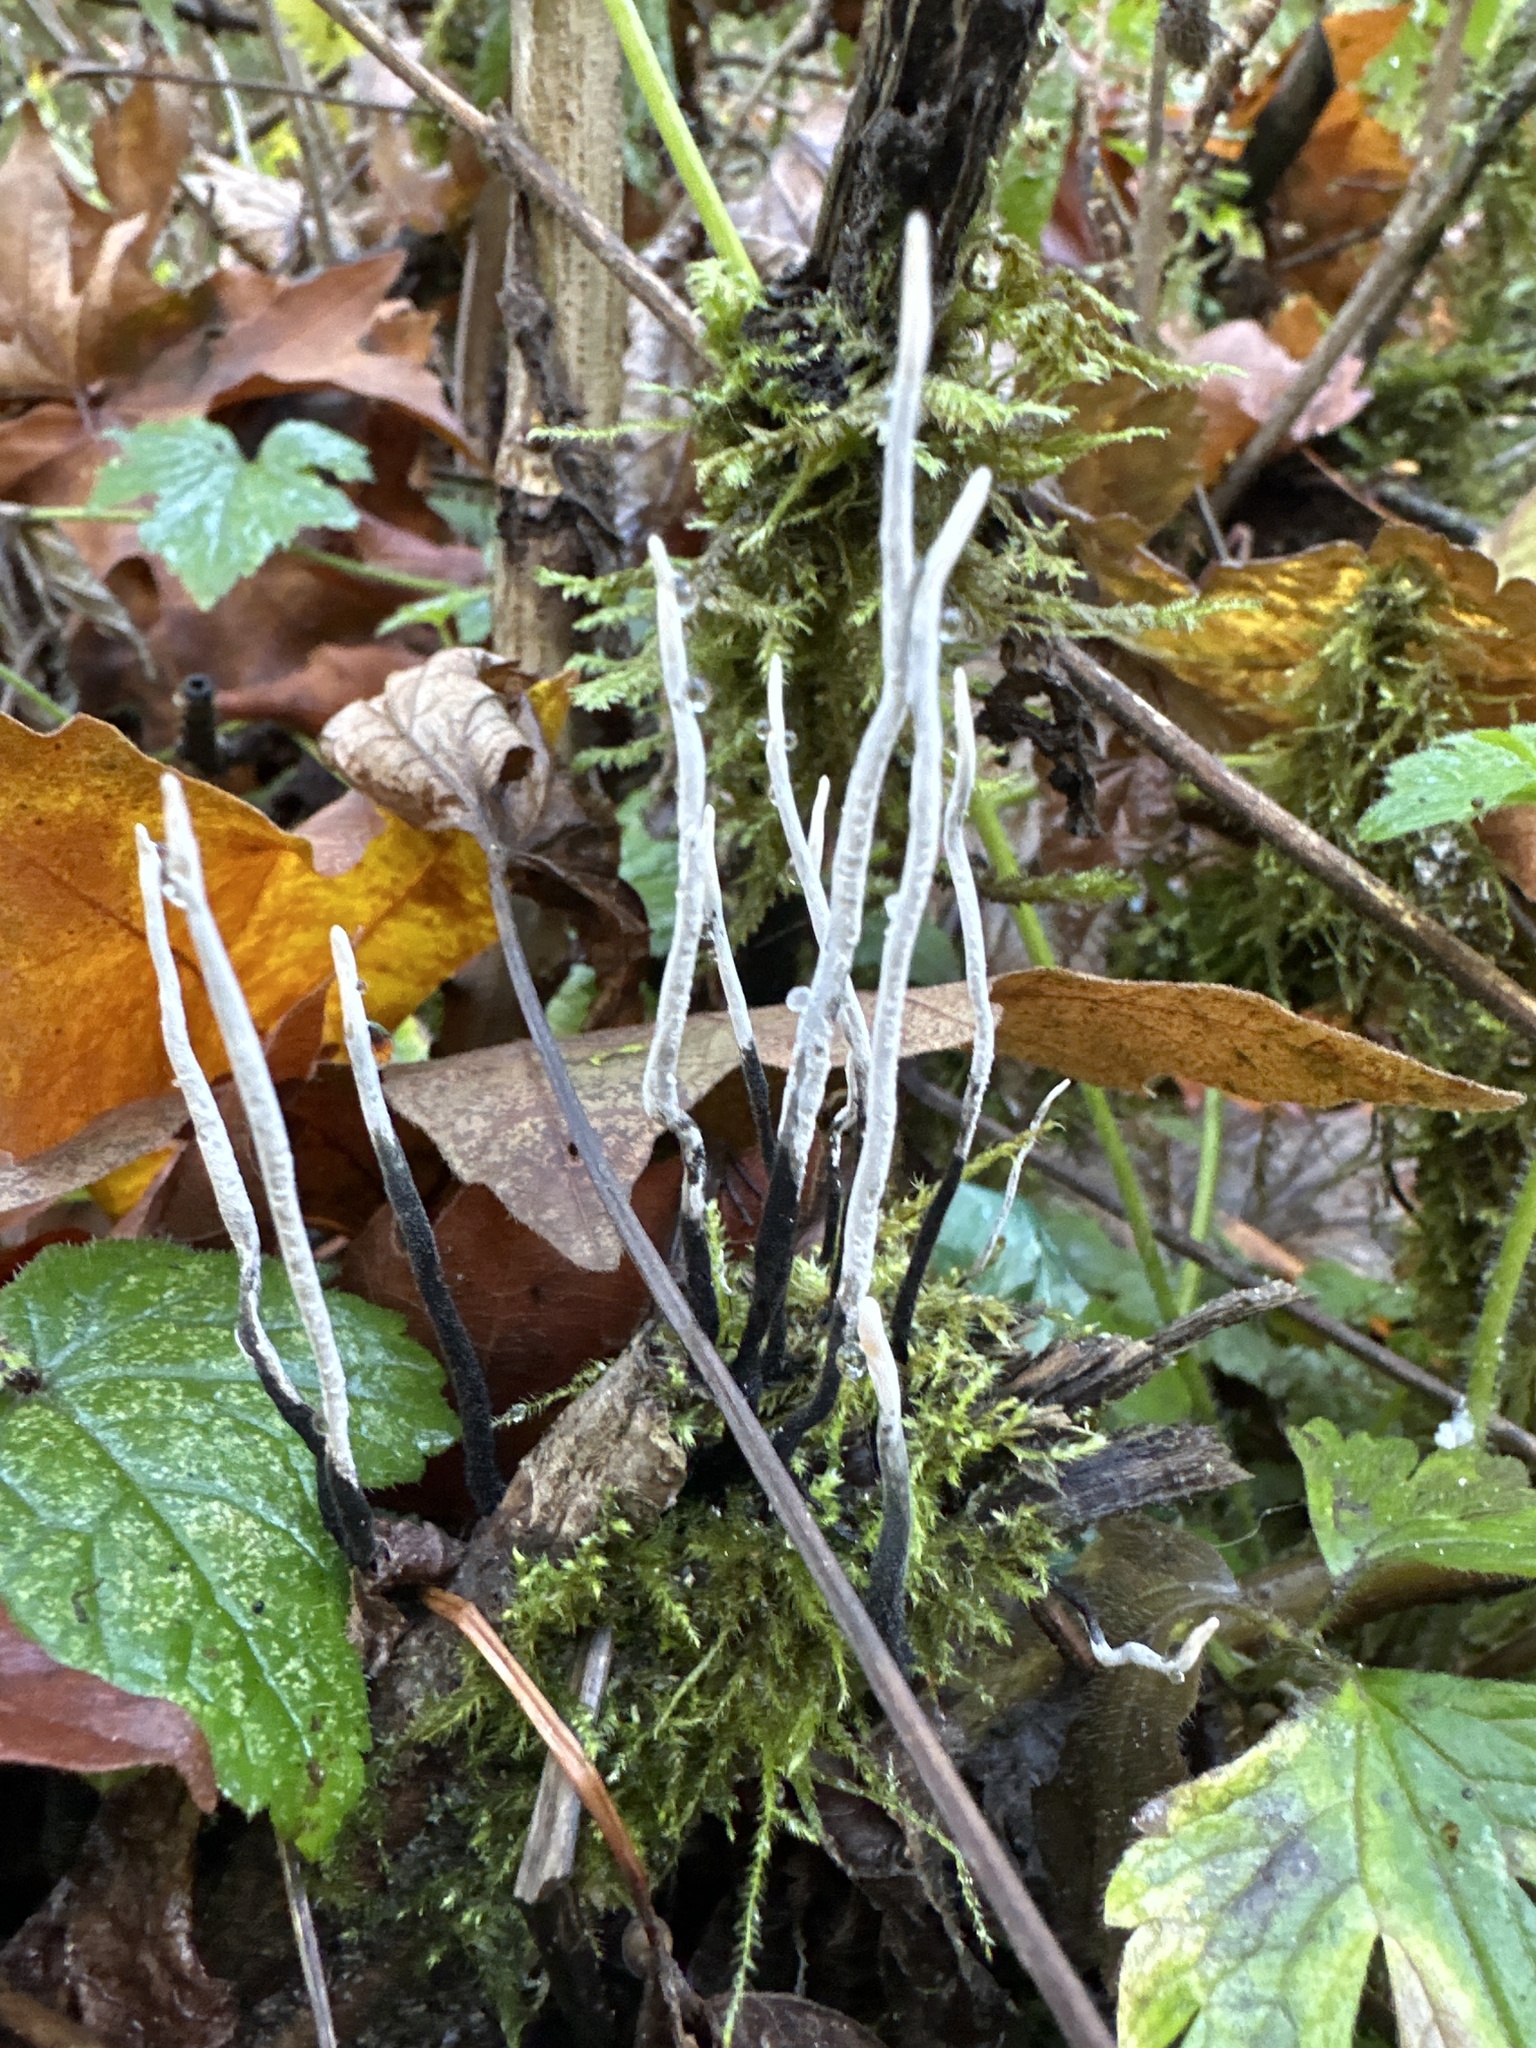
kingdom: Fungi
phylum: Ascomycota
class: Sordariomycetes
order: Xylariales
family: Xylariaceae
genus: Xylaria
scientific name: Xylaria hypoxylon
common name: Candle-snuff fungus
